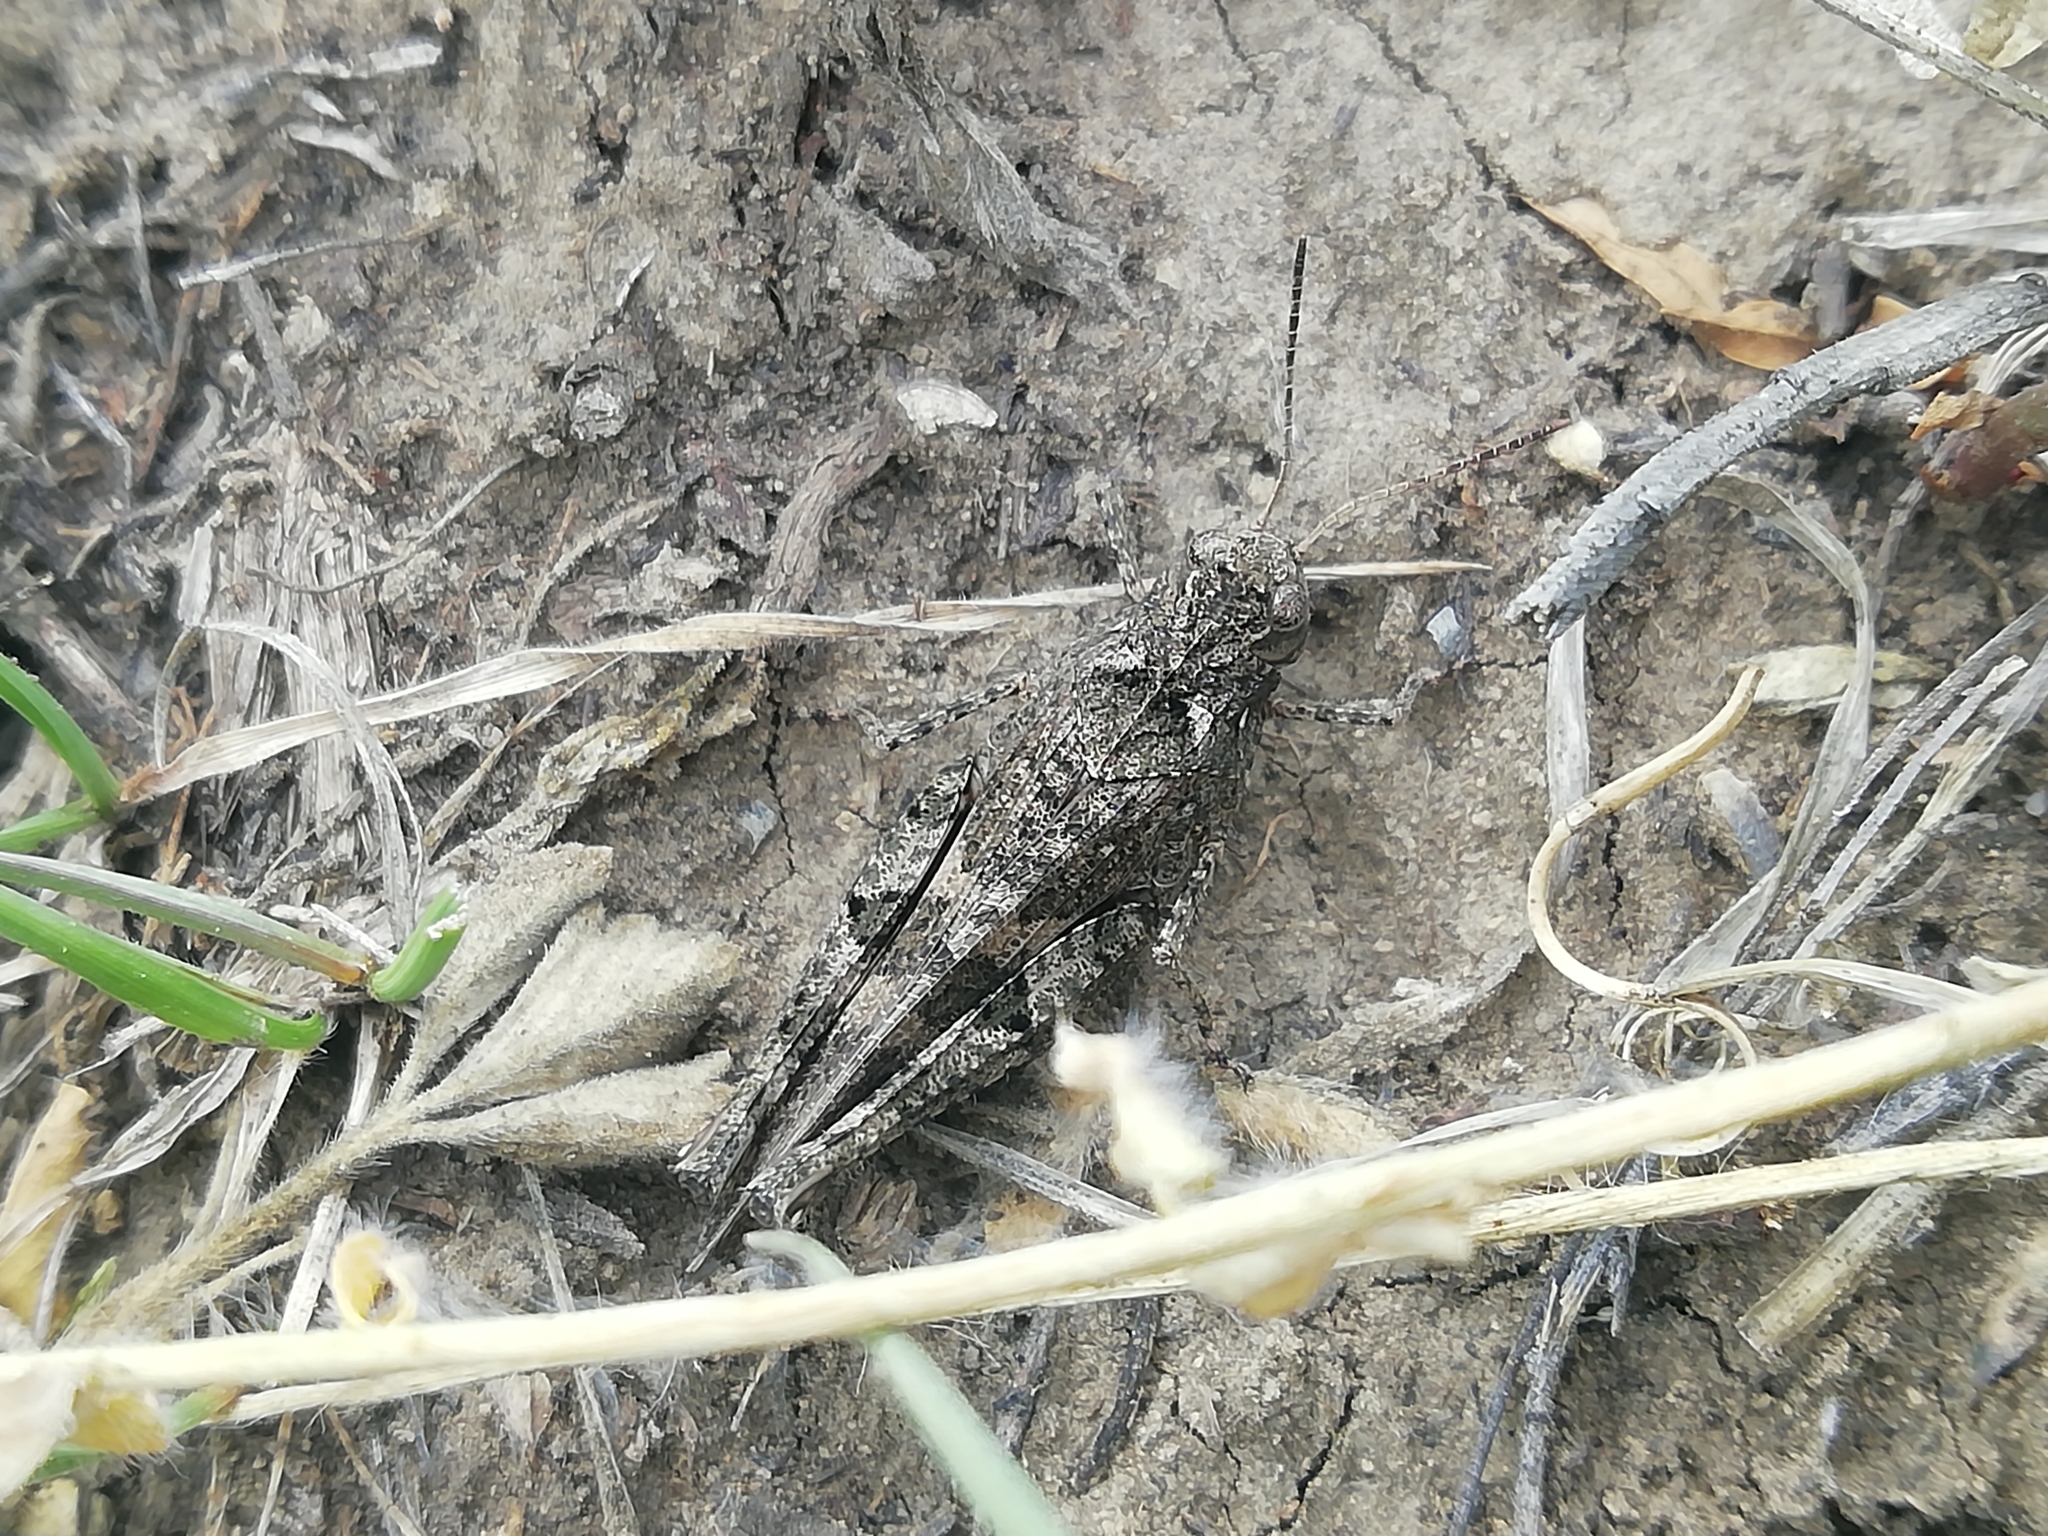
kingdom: Animalia
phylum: Arthropoda
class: Insecta
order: Orthoptera
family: Acrididae
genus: Celes
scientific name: Celes variabilis
